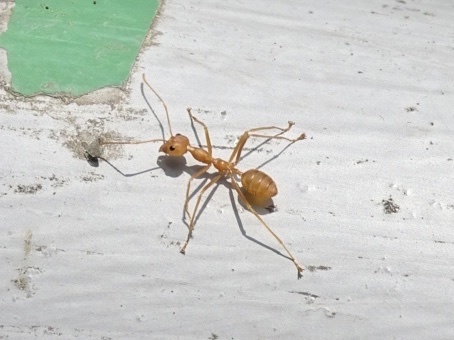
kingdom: Animalia
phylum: Arthropoda
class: Insecta
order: Hymenoptera
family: Formicidae
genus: Oecophylla
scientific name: Oecophylla smaragdina
